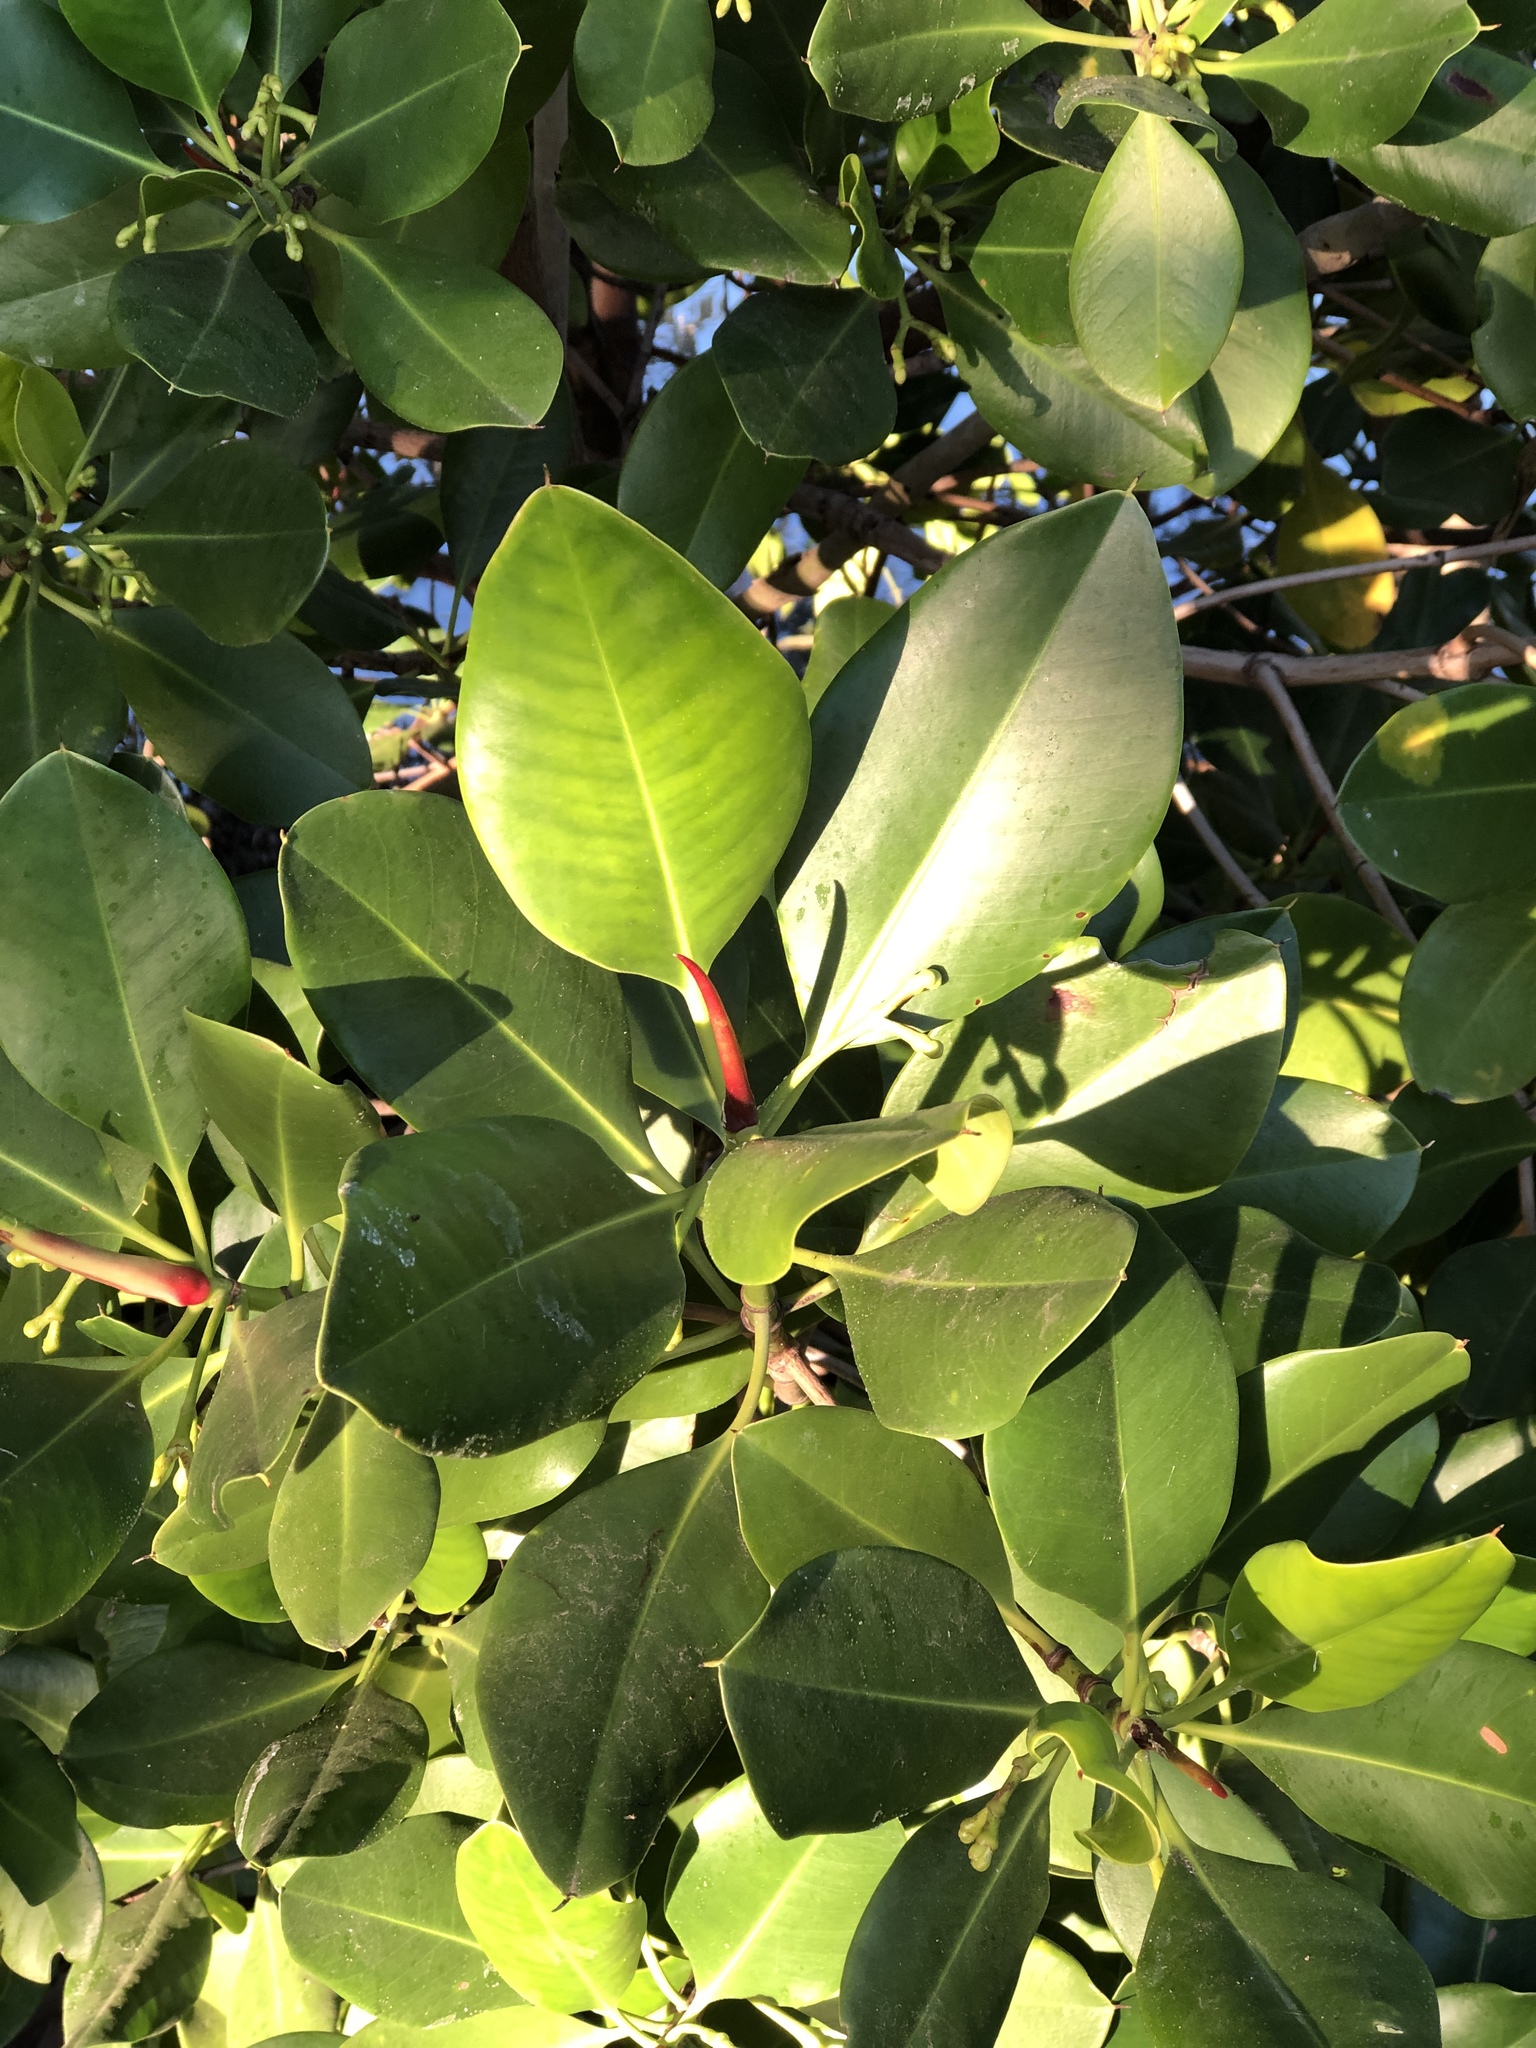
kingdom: Plantae
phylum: Tracheophyta
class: Magnoliopsida
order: Malpighiales
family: Rhizophoraceae
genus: Rhizophora
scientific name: Rhizophora stylosa
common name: Red mangrove
